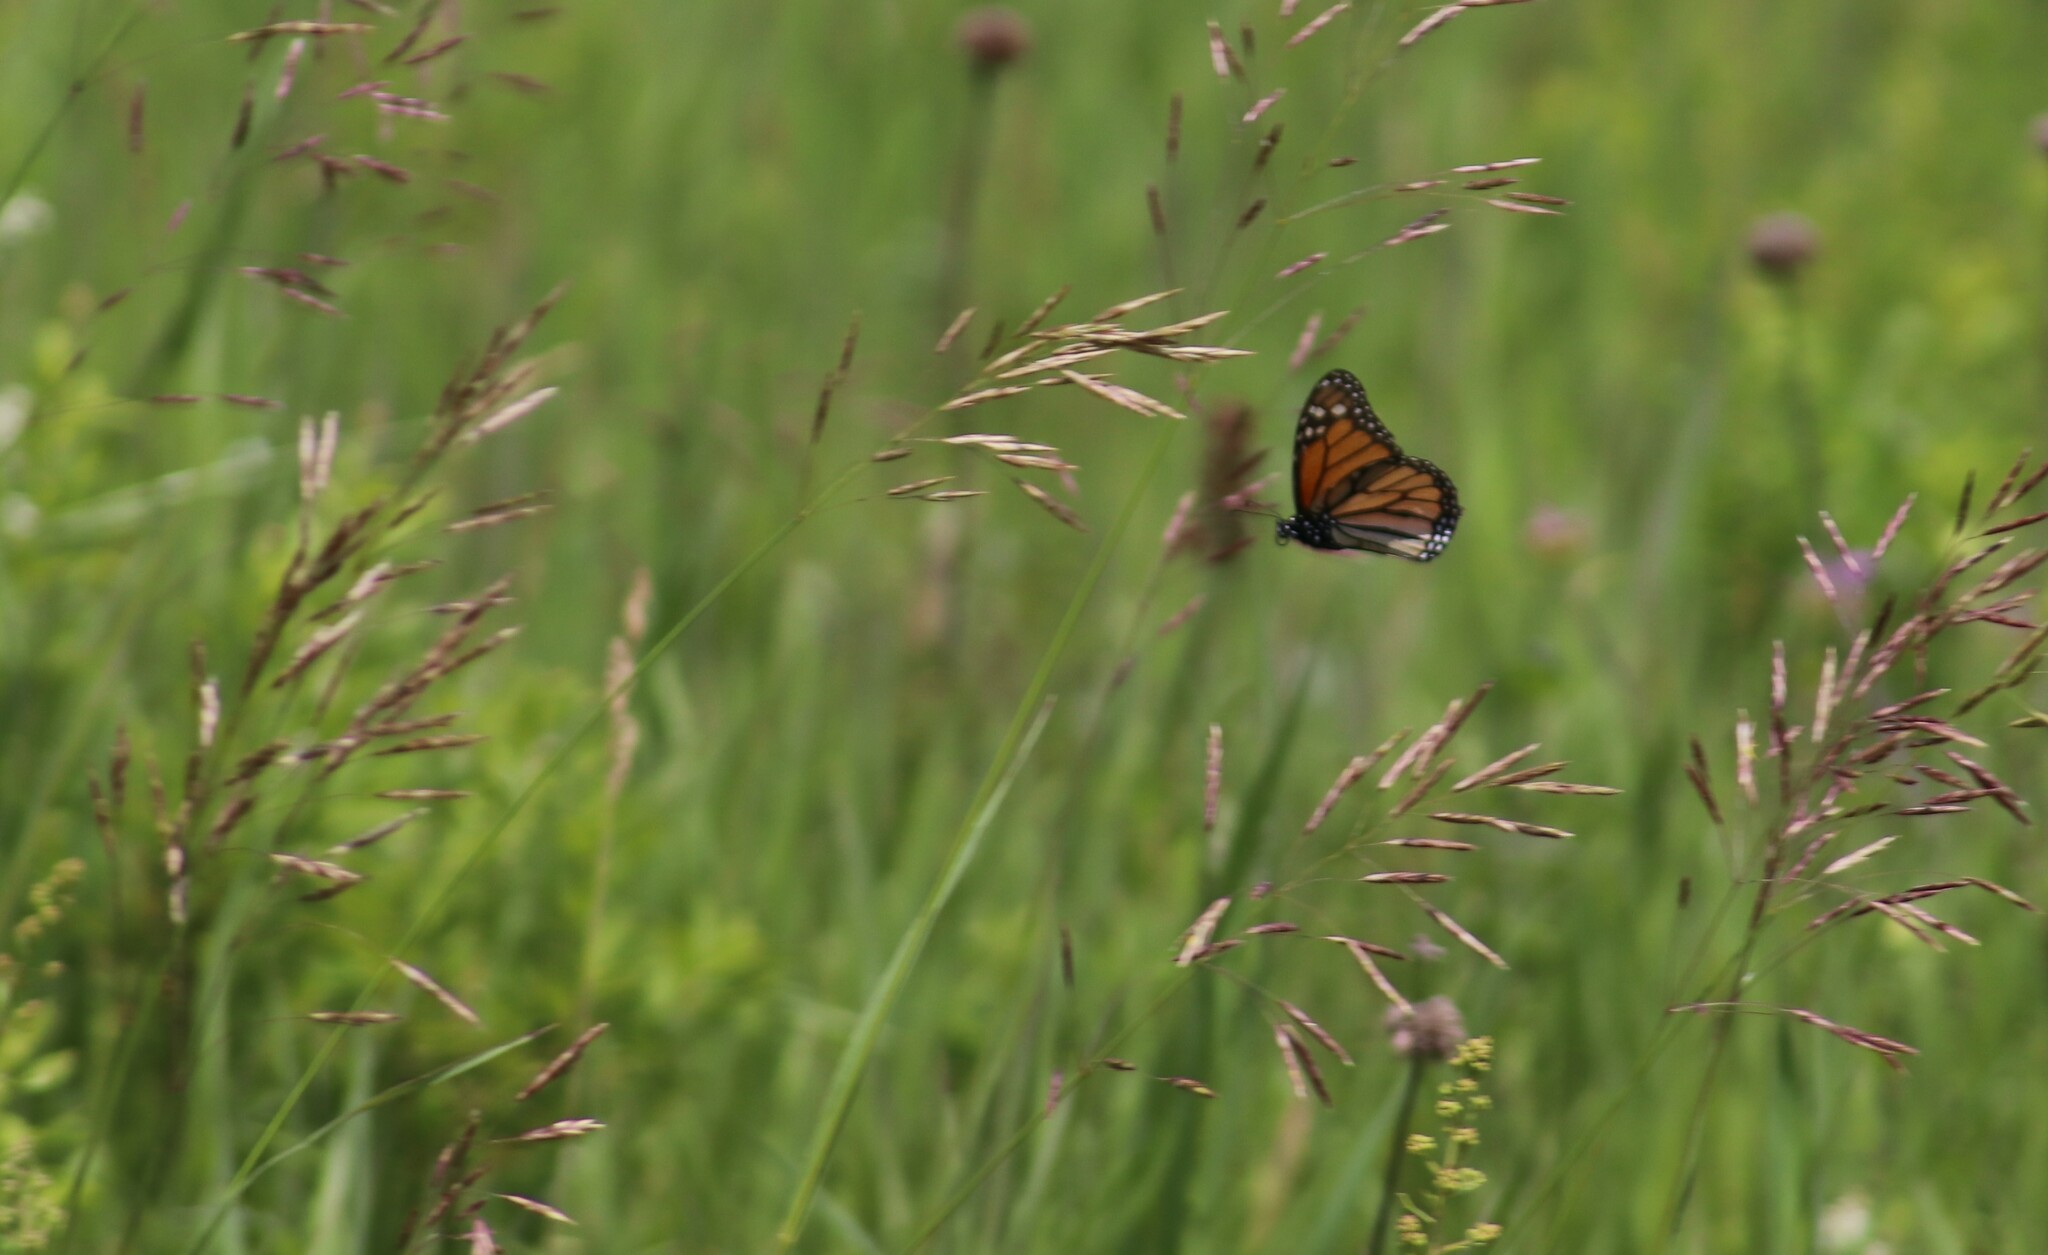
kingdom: Animalia
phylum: Arthropoda
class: Insecta
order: Lepidoptera
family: Nymphalidae
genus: Danaus
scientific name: Danaus plexippus
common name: Monarch
